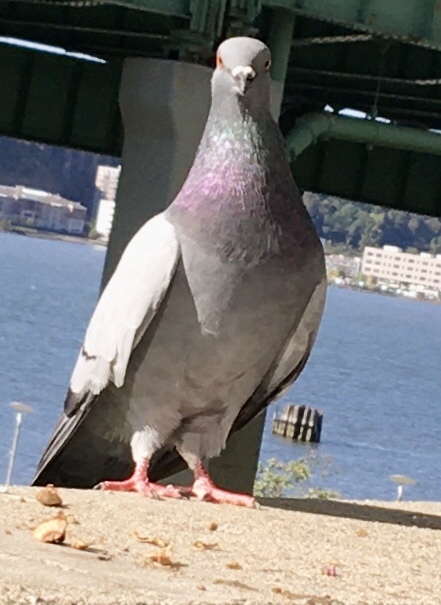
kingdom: Animalia
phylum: Chordata
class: Aves
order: Columbiformes
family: Columbidae
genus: Columba
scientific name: Columba livia
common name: Rock pigeon
